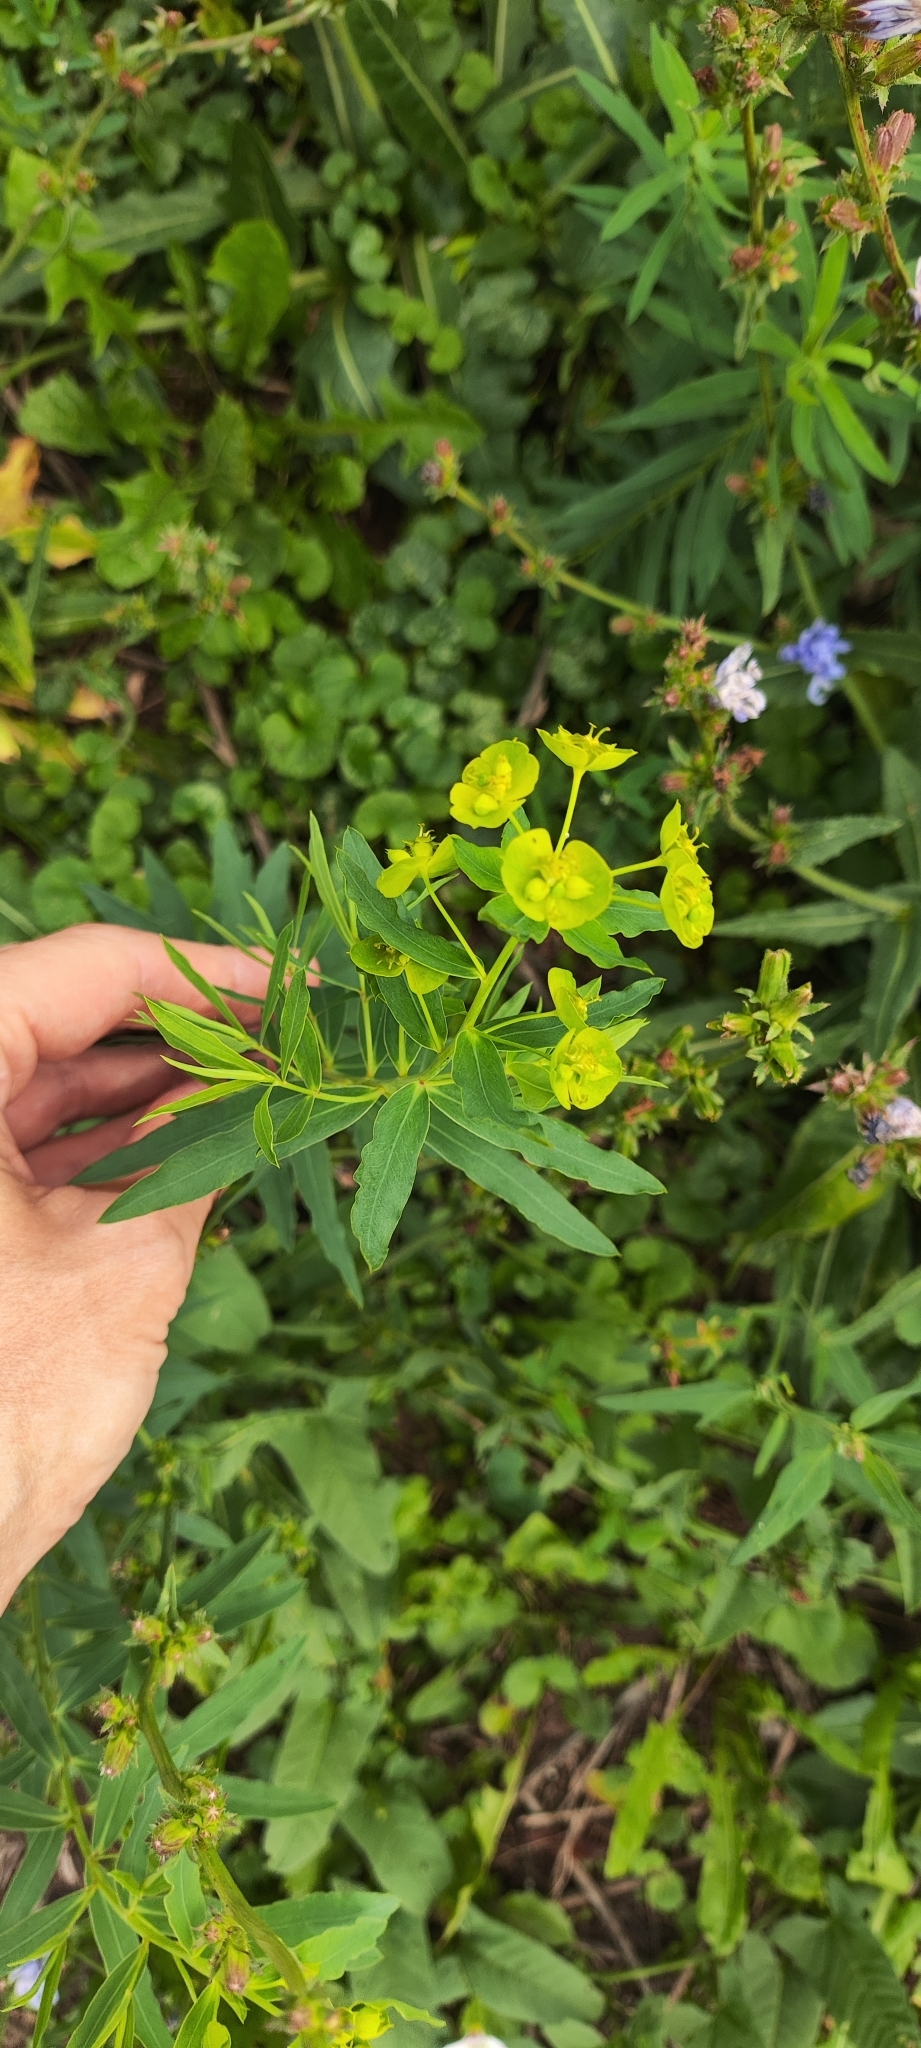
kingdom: Plantae
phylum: Tracheophyta
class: Magnoliopsida
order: Malpighiales
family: Euphorbiaceae
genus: Euphorbia
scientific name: Euphorbia virgata
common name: Leafy spurge
